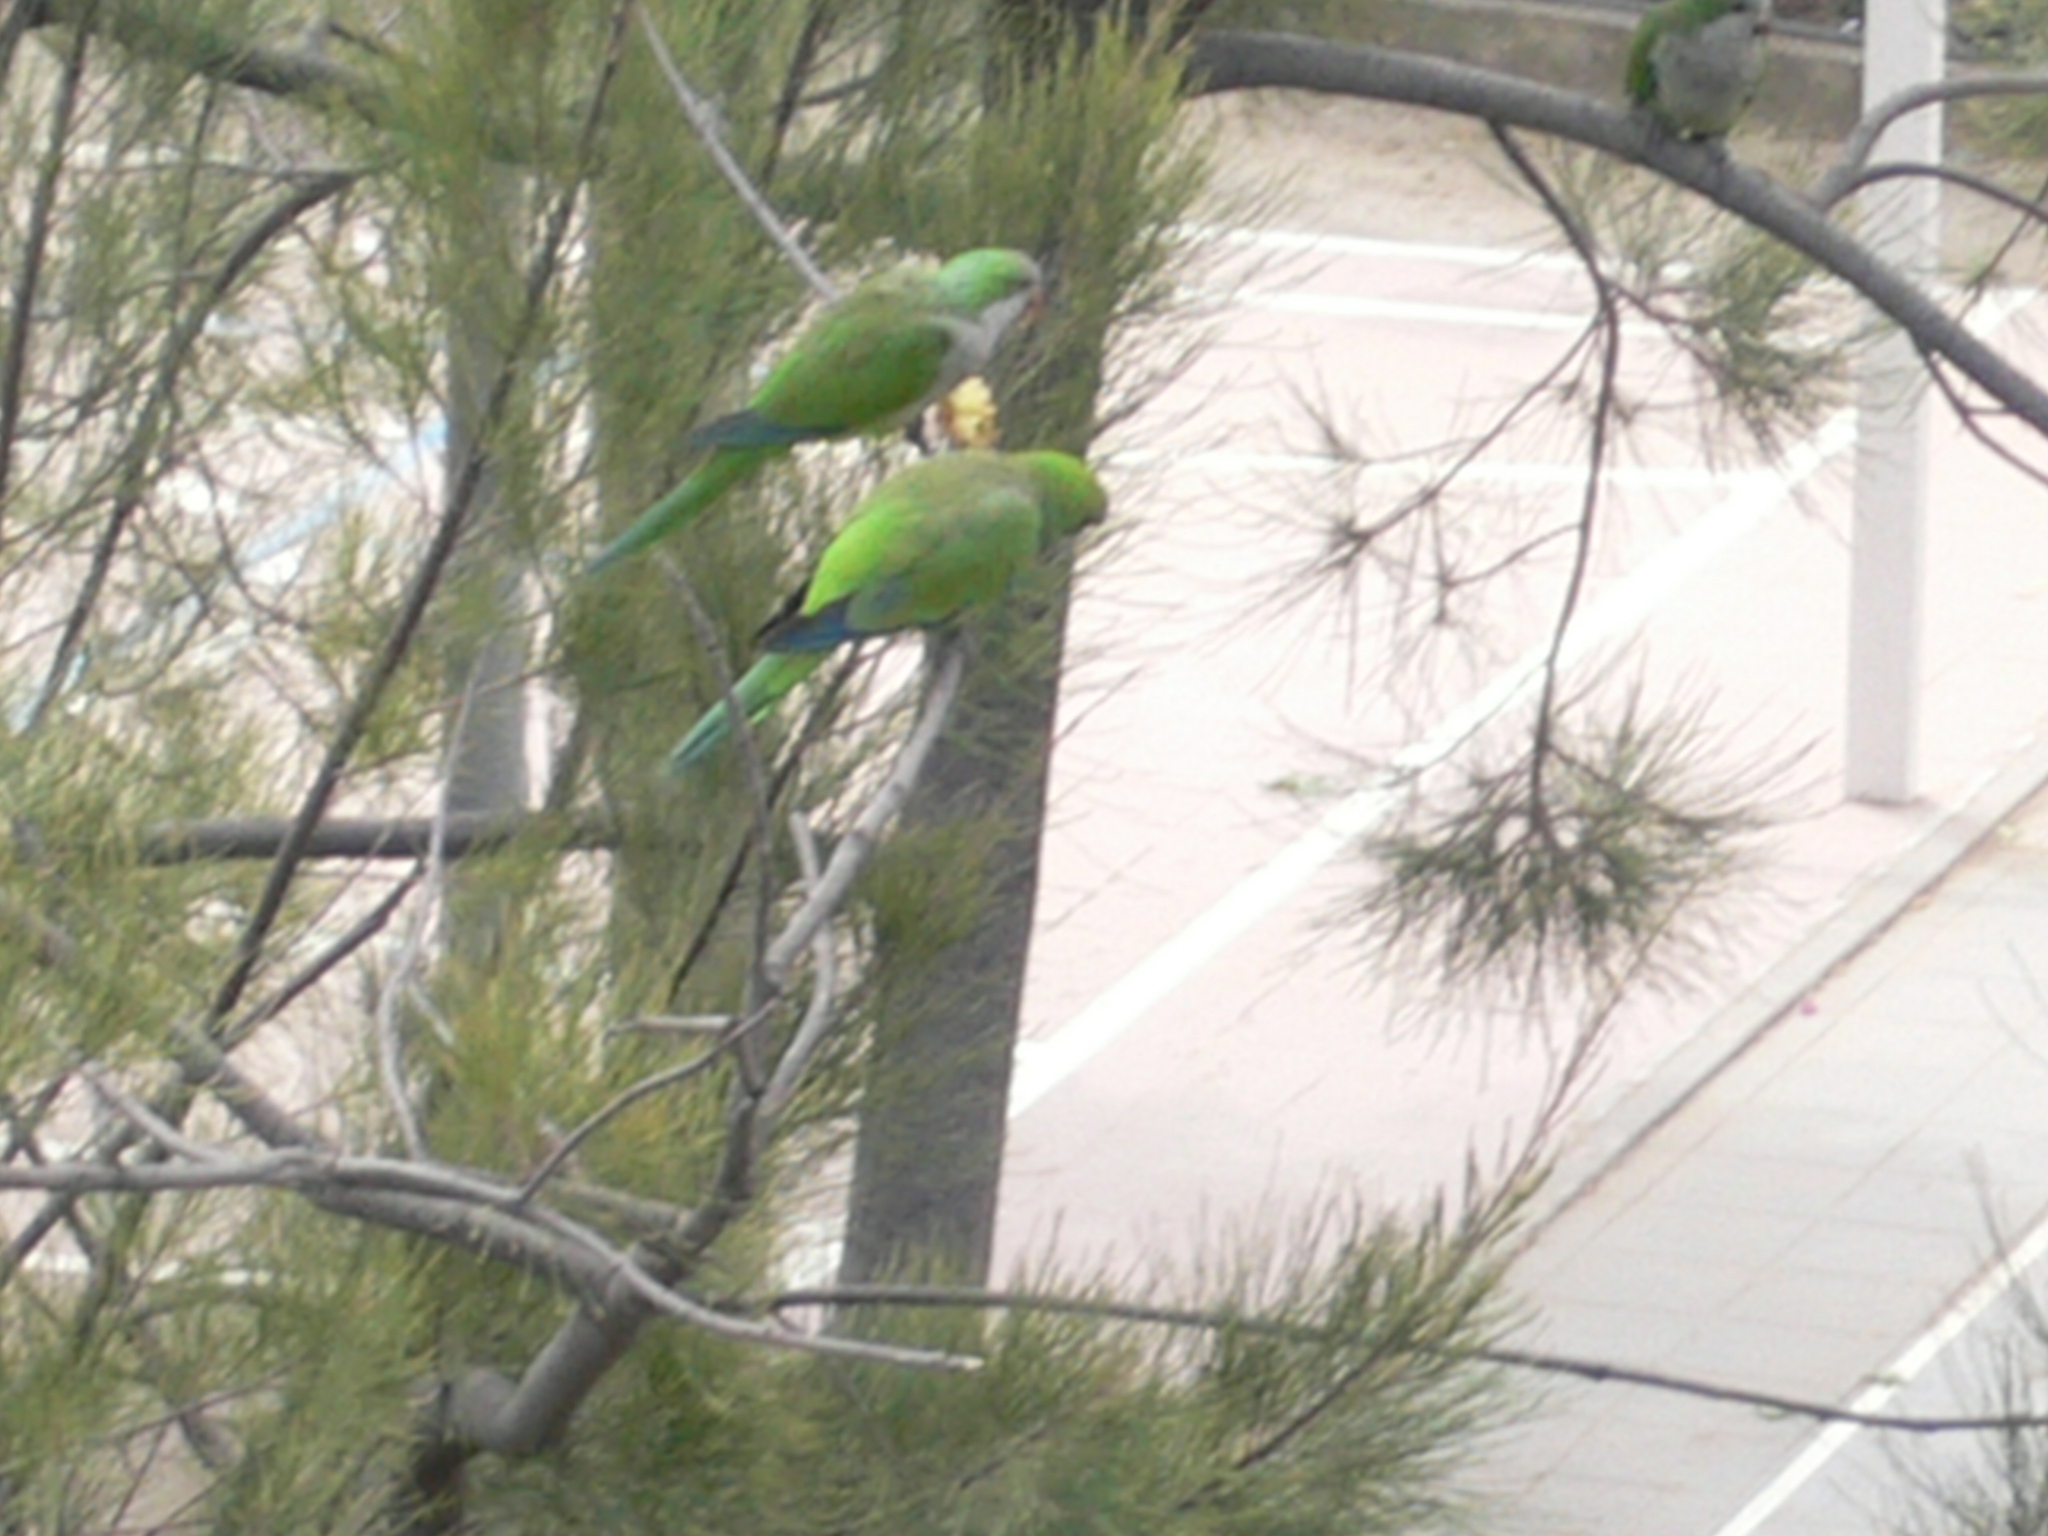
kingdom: Animalia
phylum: Chordata
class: Aves
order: Psittaciformes
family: Psittacidae
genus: Myiopsitta
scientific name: Myiopsitta monachus
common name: Monk parakeet
